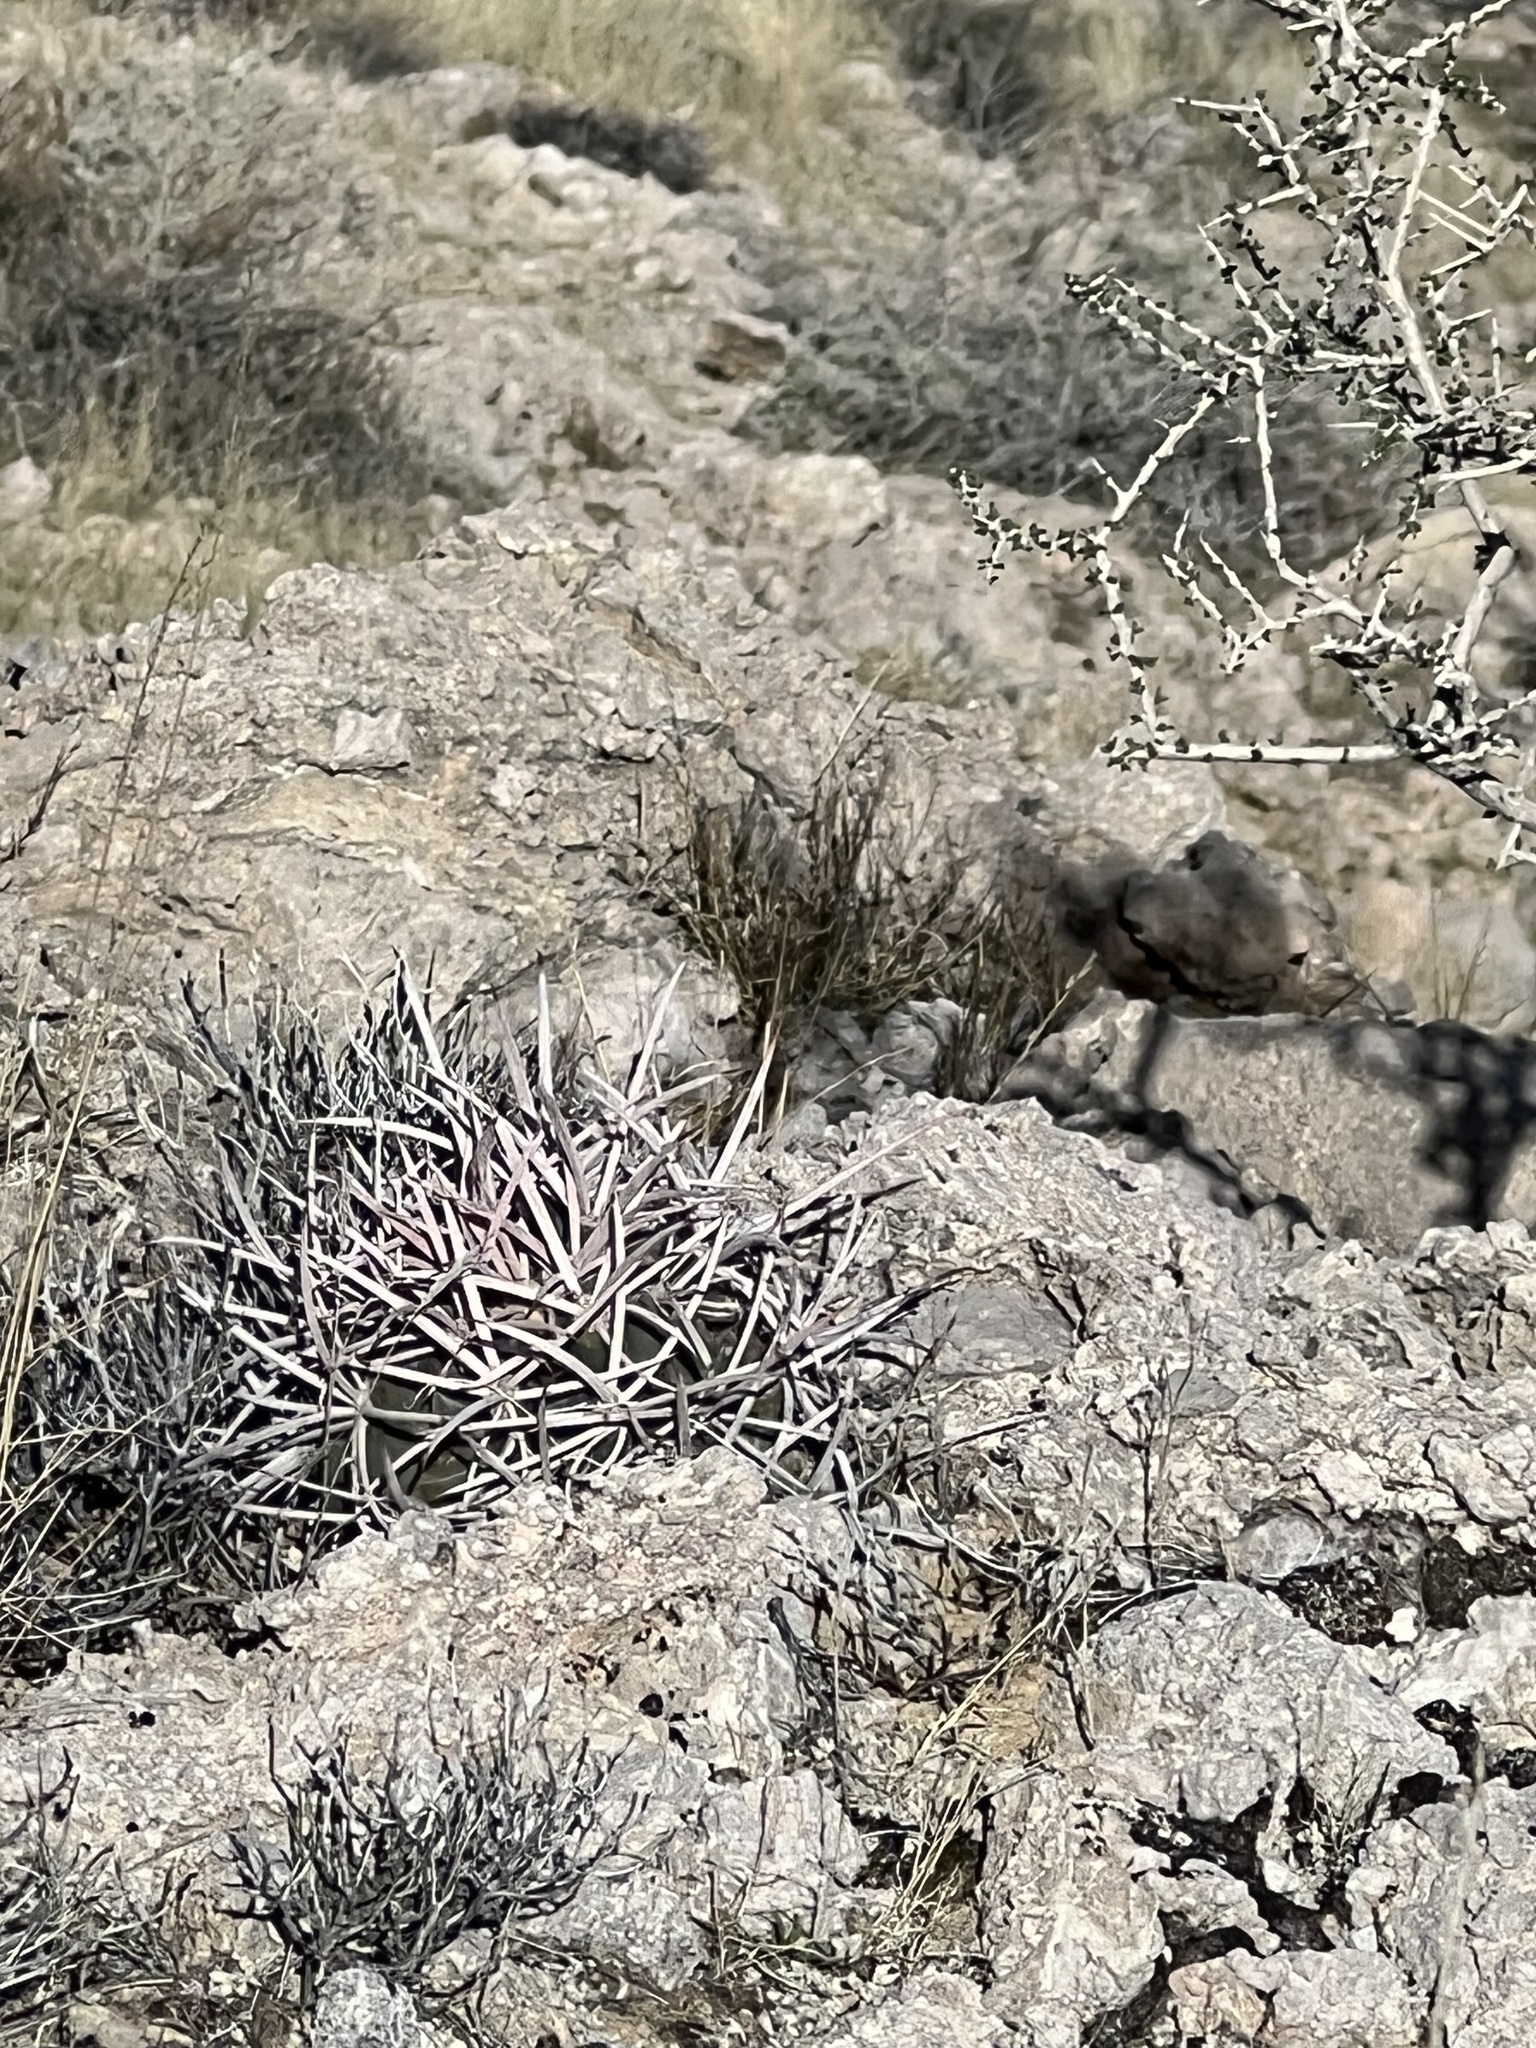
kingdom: Plantae
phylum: Tracheophyta
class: Magnoliopsida
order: Caryophyllales
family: Cactaceae
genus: Echinocactus
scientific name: Echinocactus polycephalus
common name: Cottontop cactus
